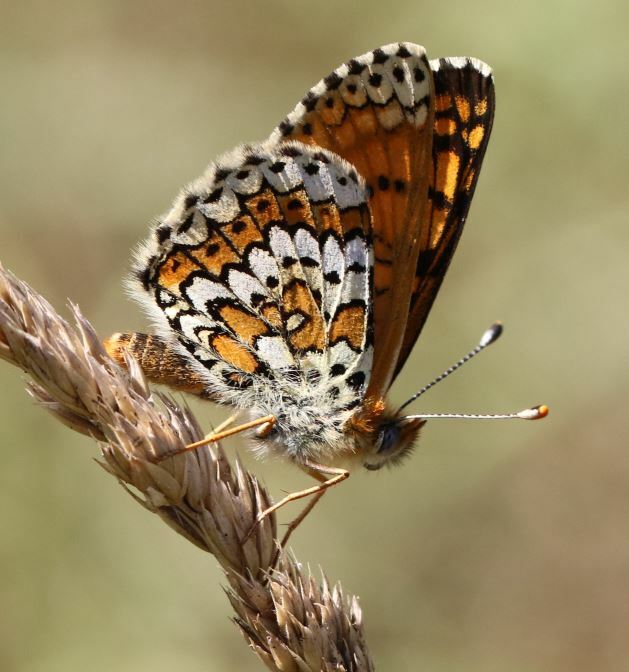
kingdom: Animalia
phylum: Arthropoda
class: Insecta
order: Lepidoptera
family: Nymphalidae
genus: Melitaea
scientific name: Melitaea cinxia
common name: Glanville fritillary
